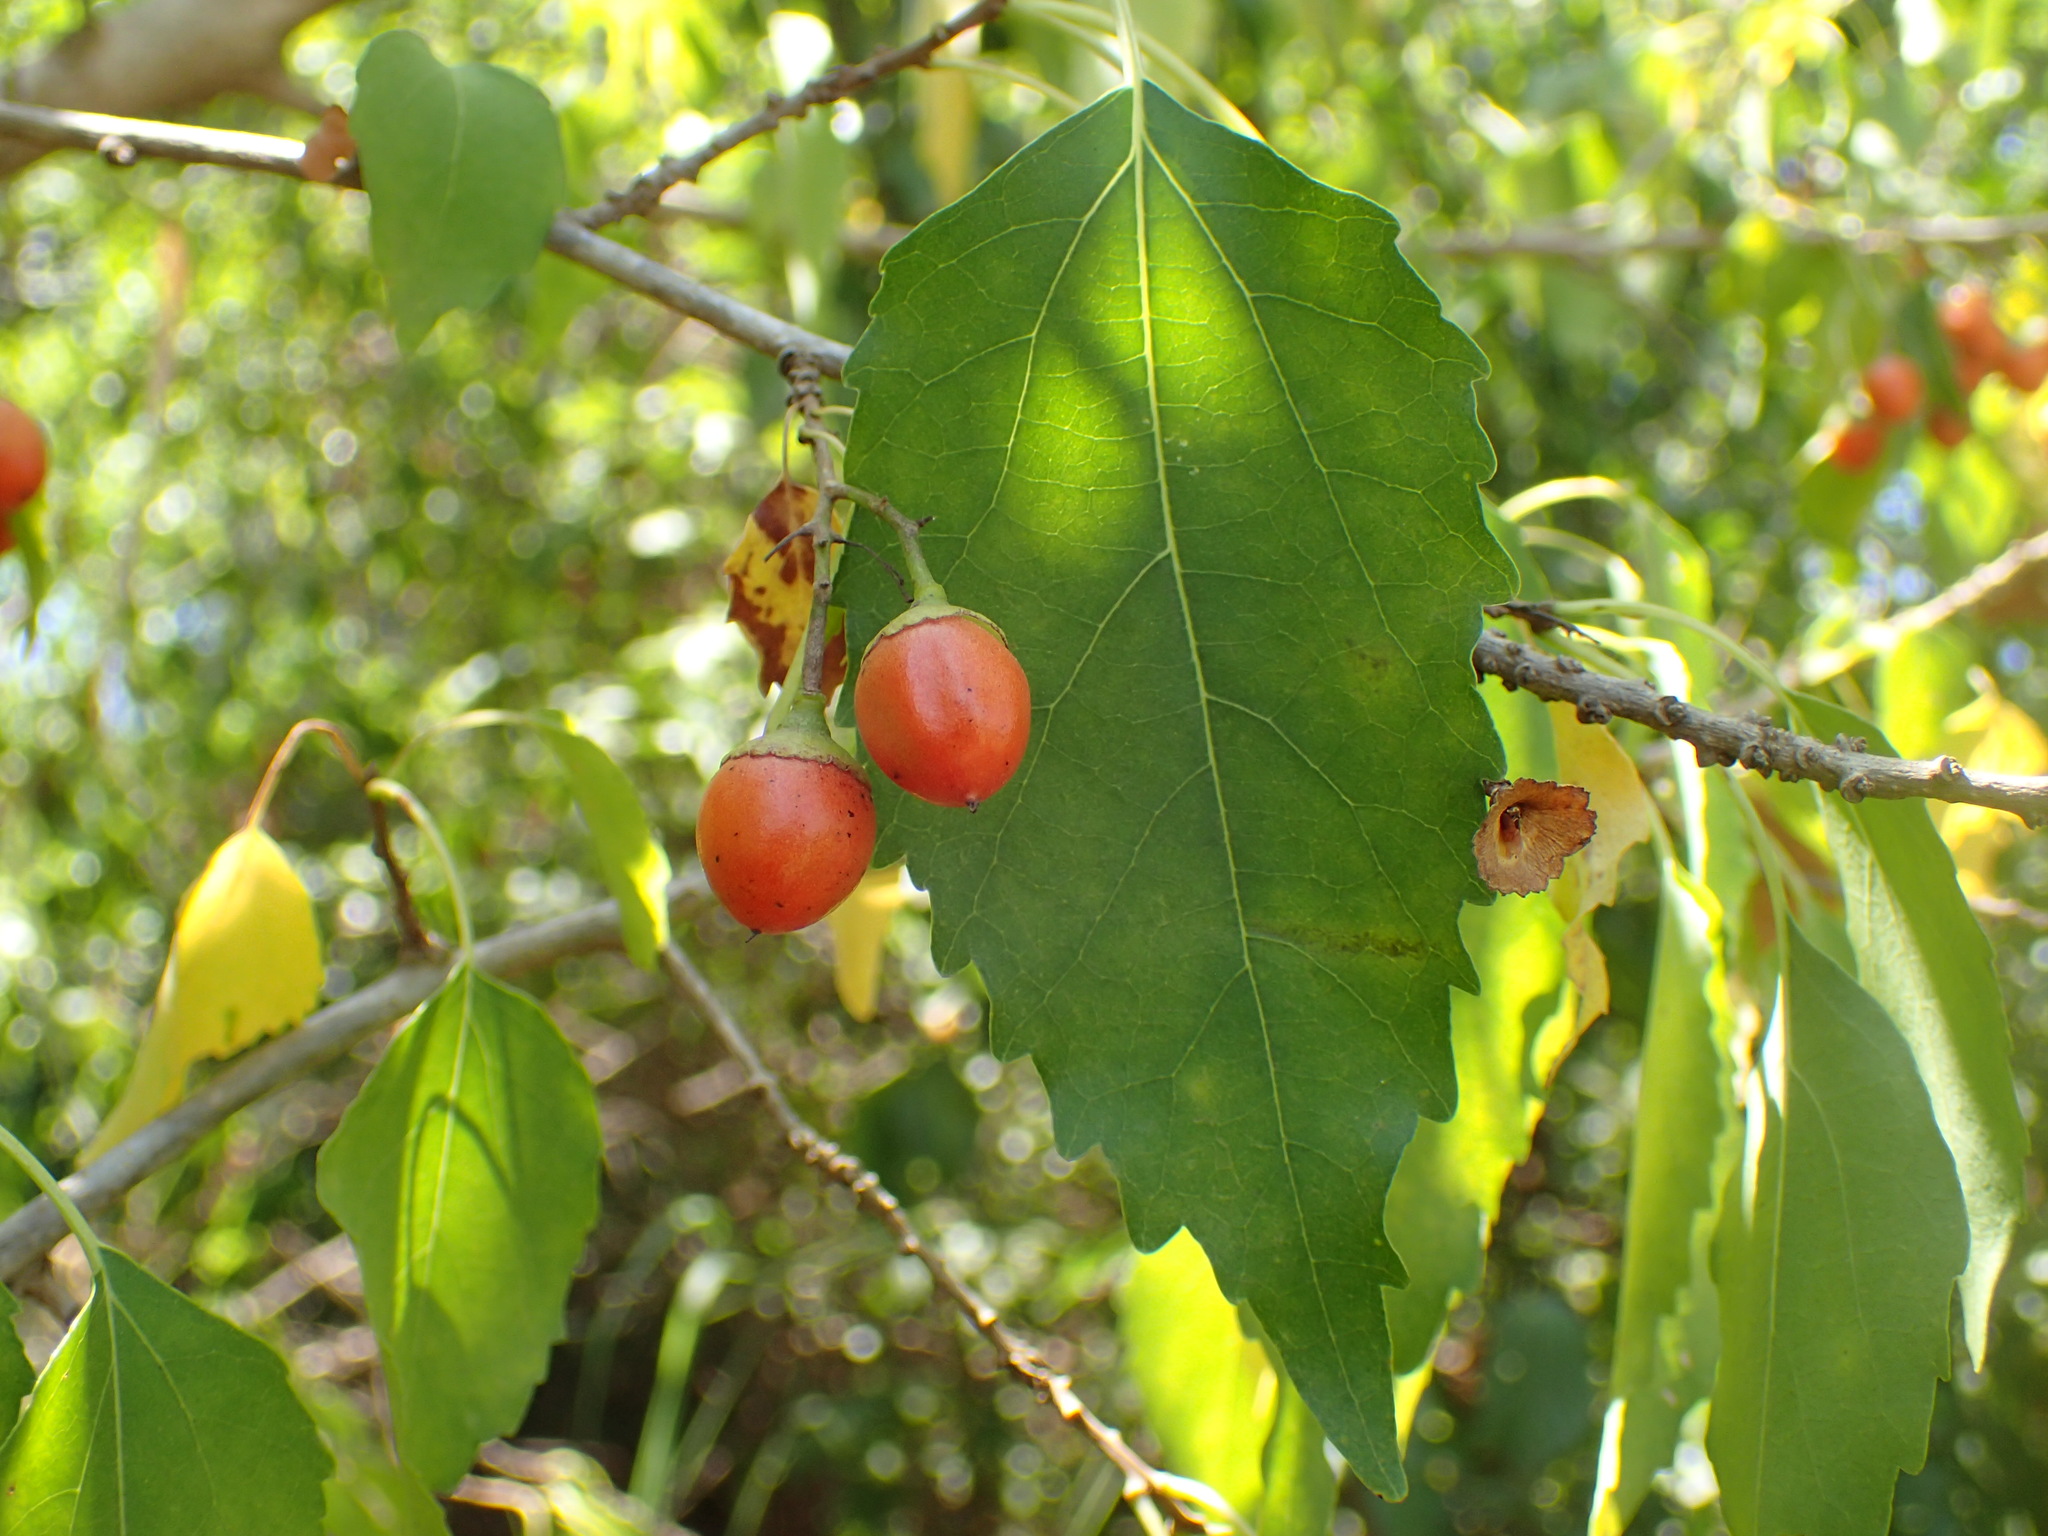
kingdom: Plantae
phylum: Tracheophyta
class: Magnoliopsida
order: Boraginales
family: Cordiaceae
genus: Cordia
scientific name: Cordia caffra
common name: Septee tree
